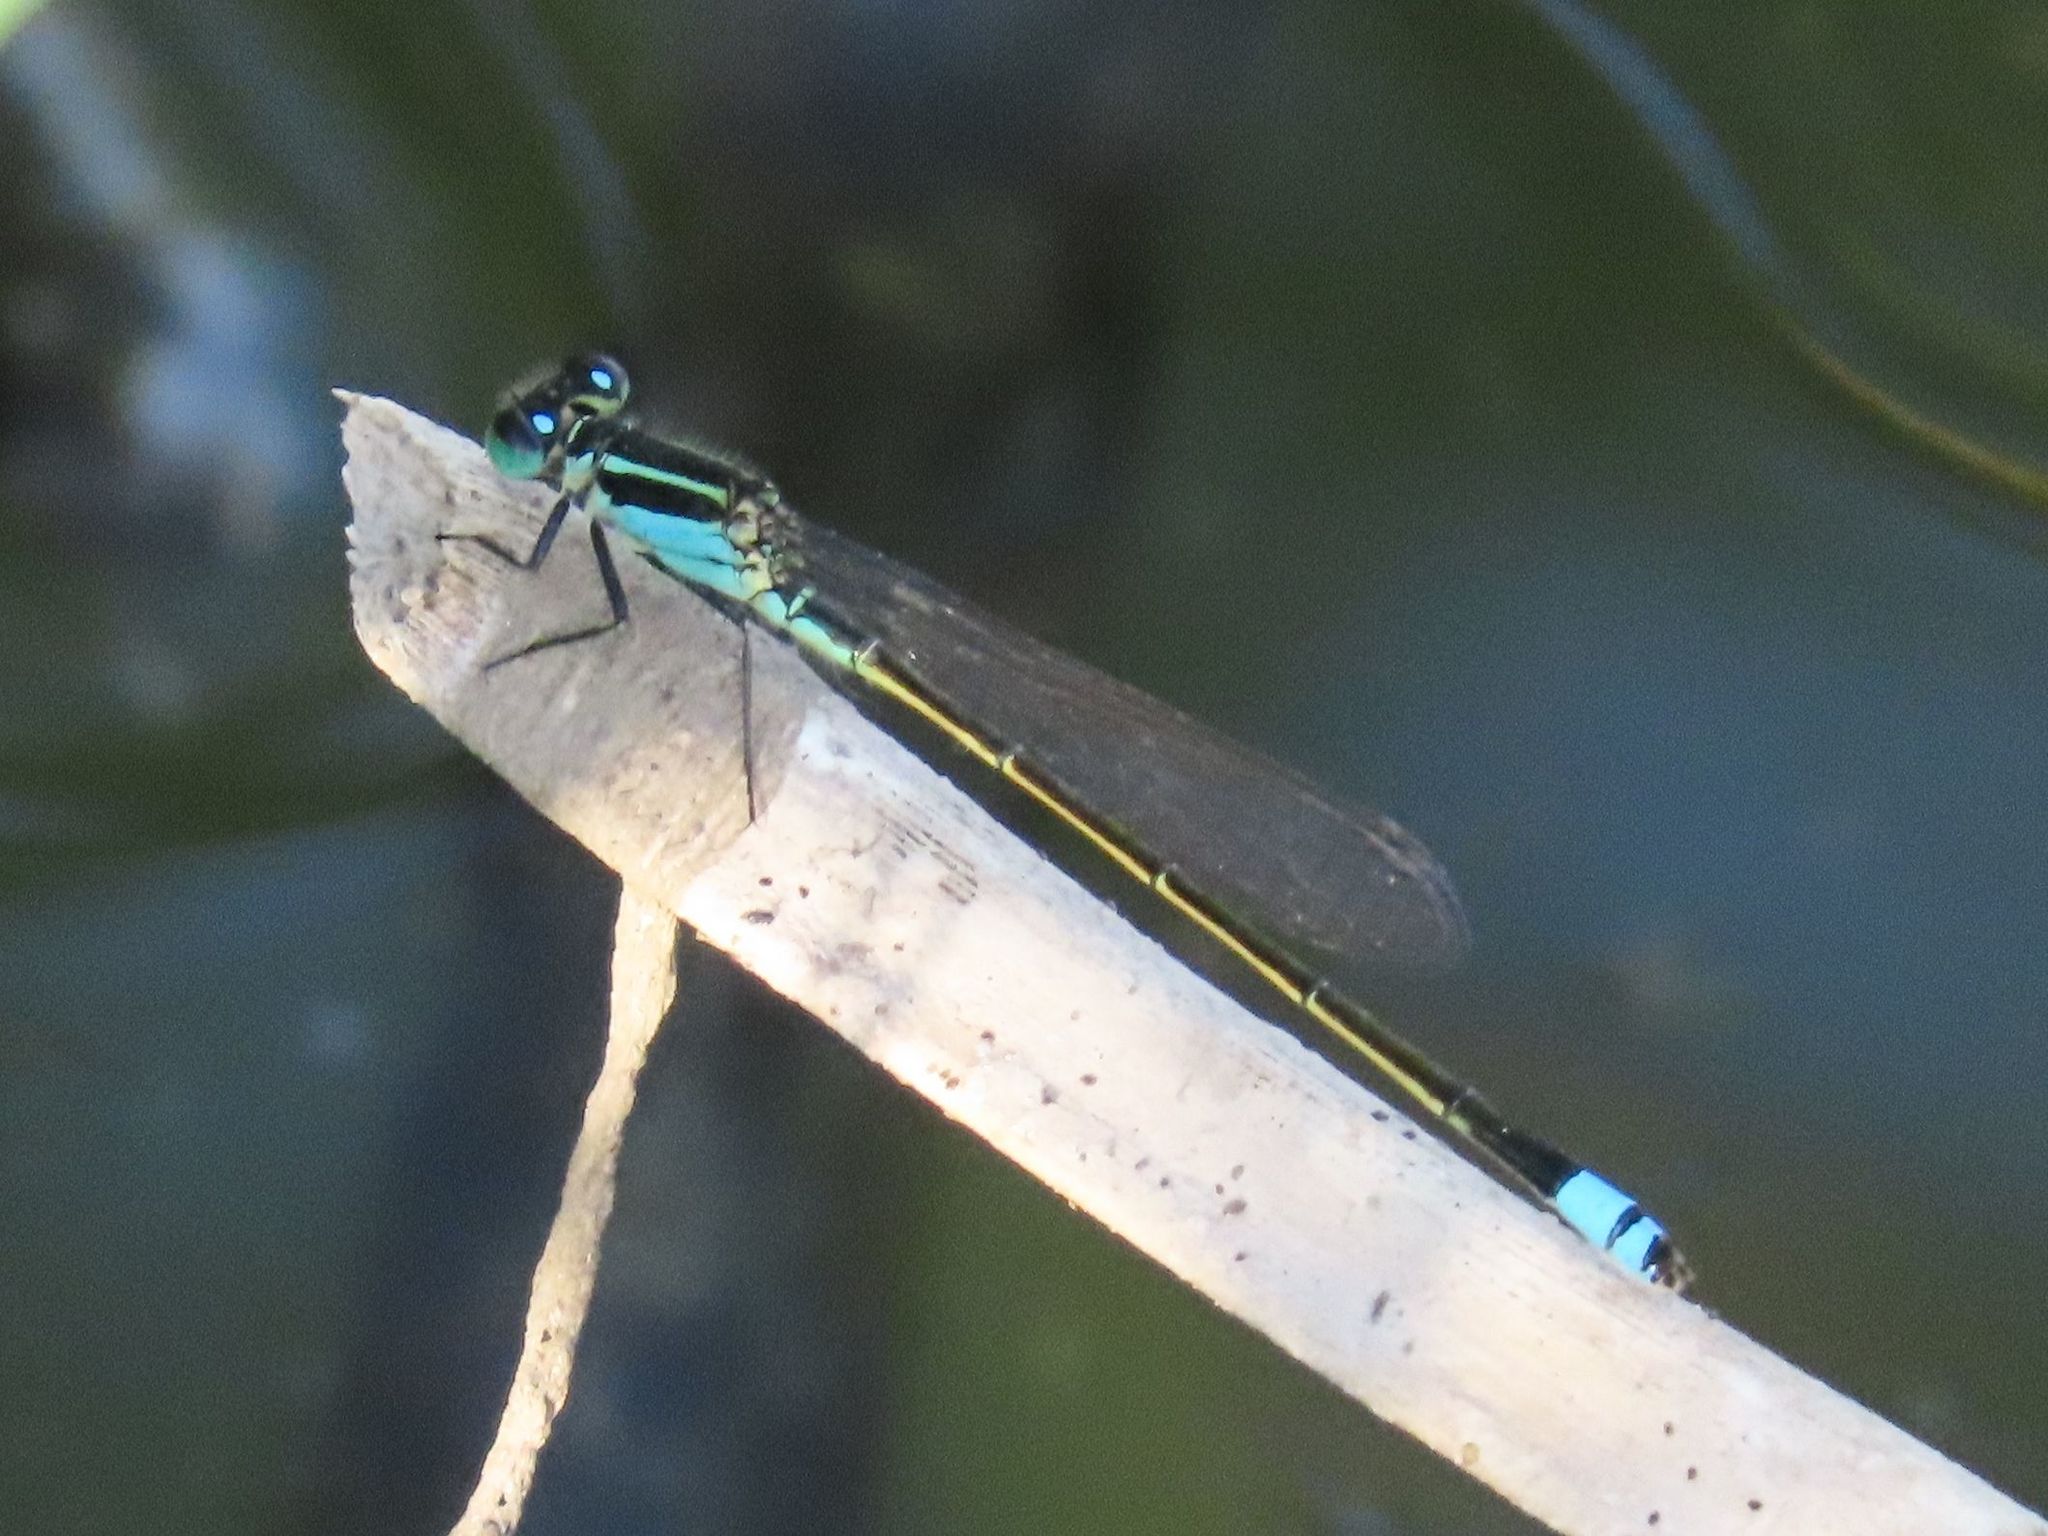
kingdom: Animalia
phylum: Arthropoda
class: Insecta
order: Odonata
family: Coenagrionidae
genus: Ischnura
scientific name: Ischnura ramburii
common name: Rambur's forktail
